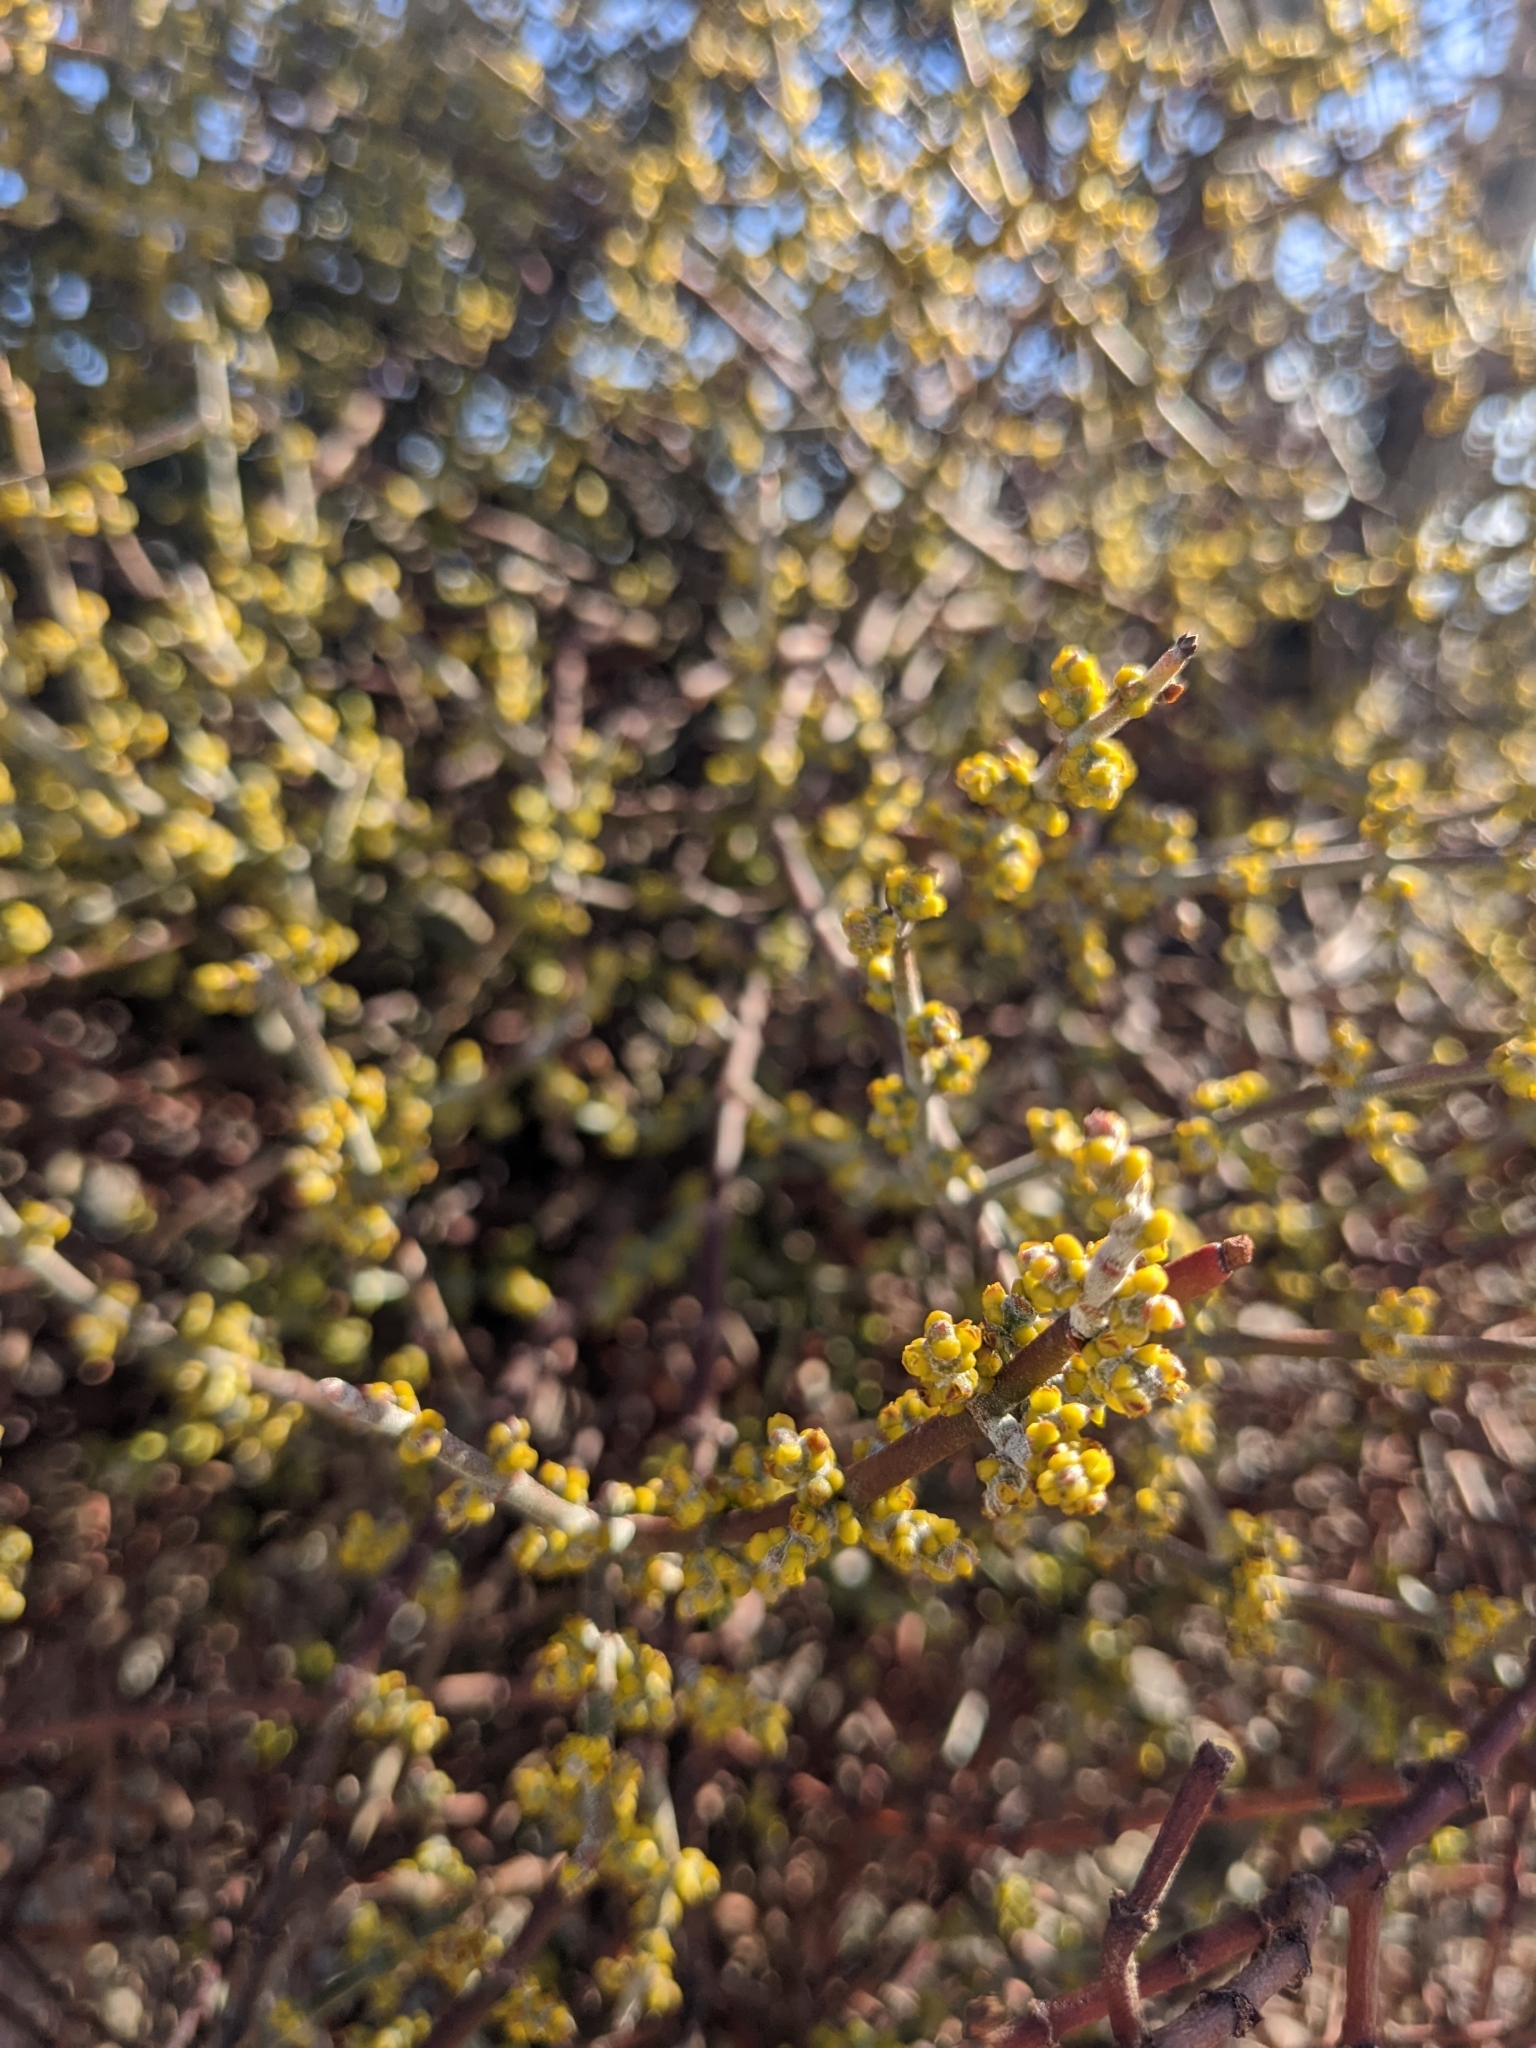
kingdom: Plantae
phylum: Tracheophyta
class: Magnoliopsida
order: Santalales
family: Viscaceae
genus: Phoradendron
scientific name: Phoradendron californicum
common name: Acacia mistletoe
